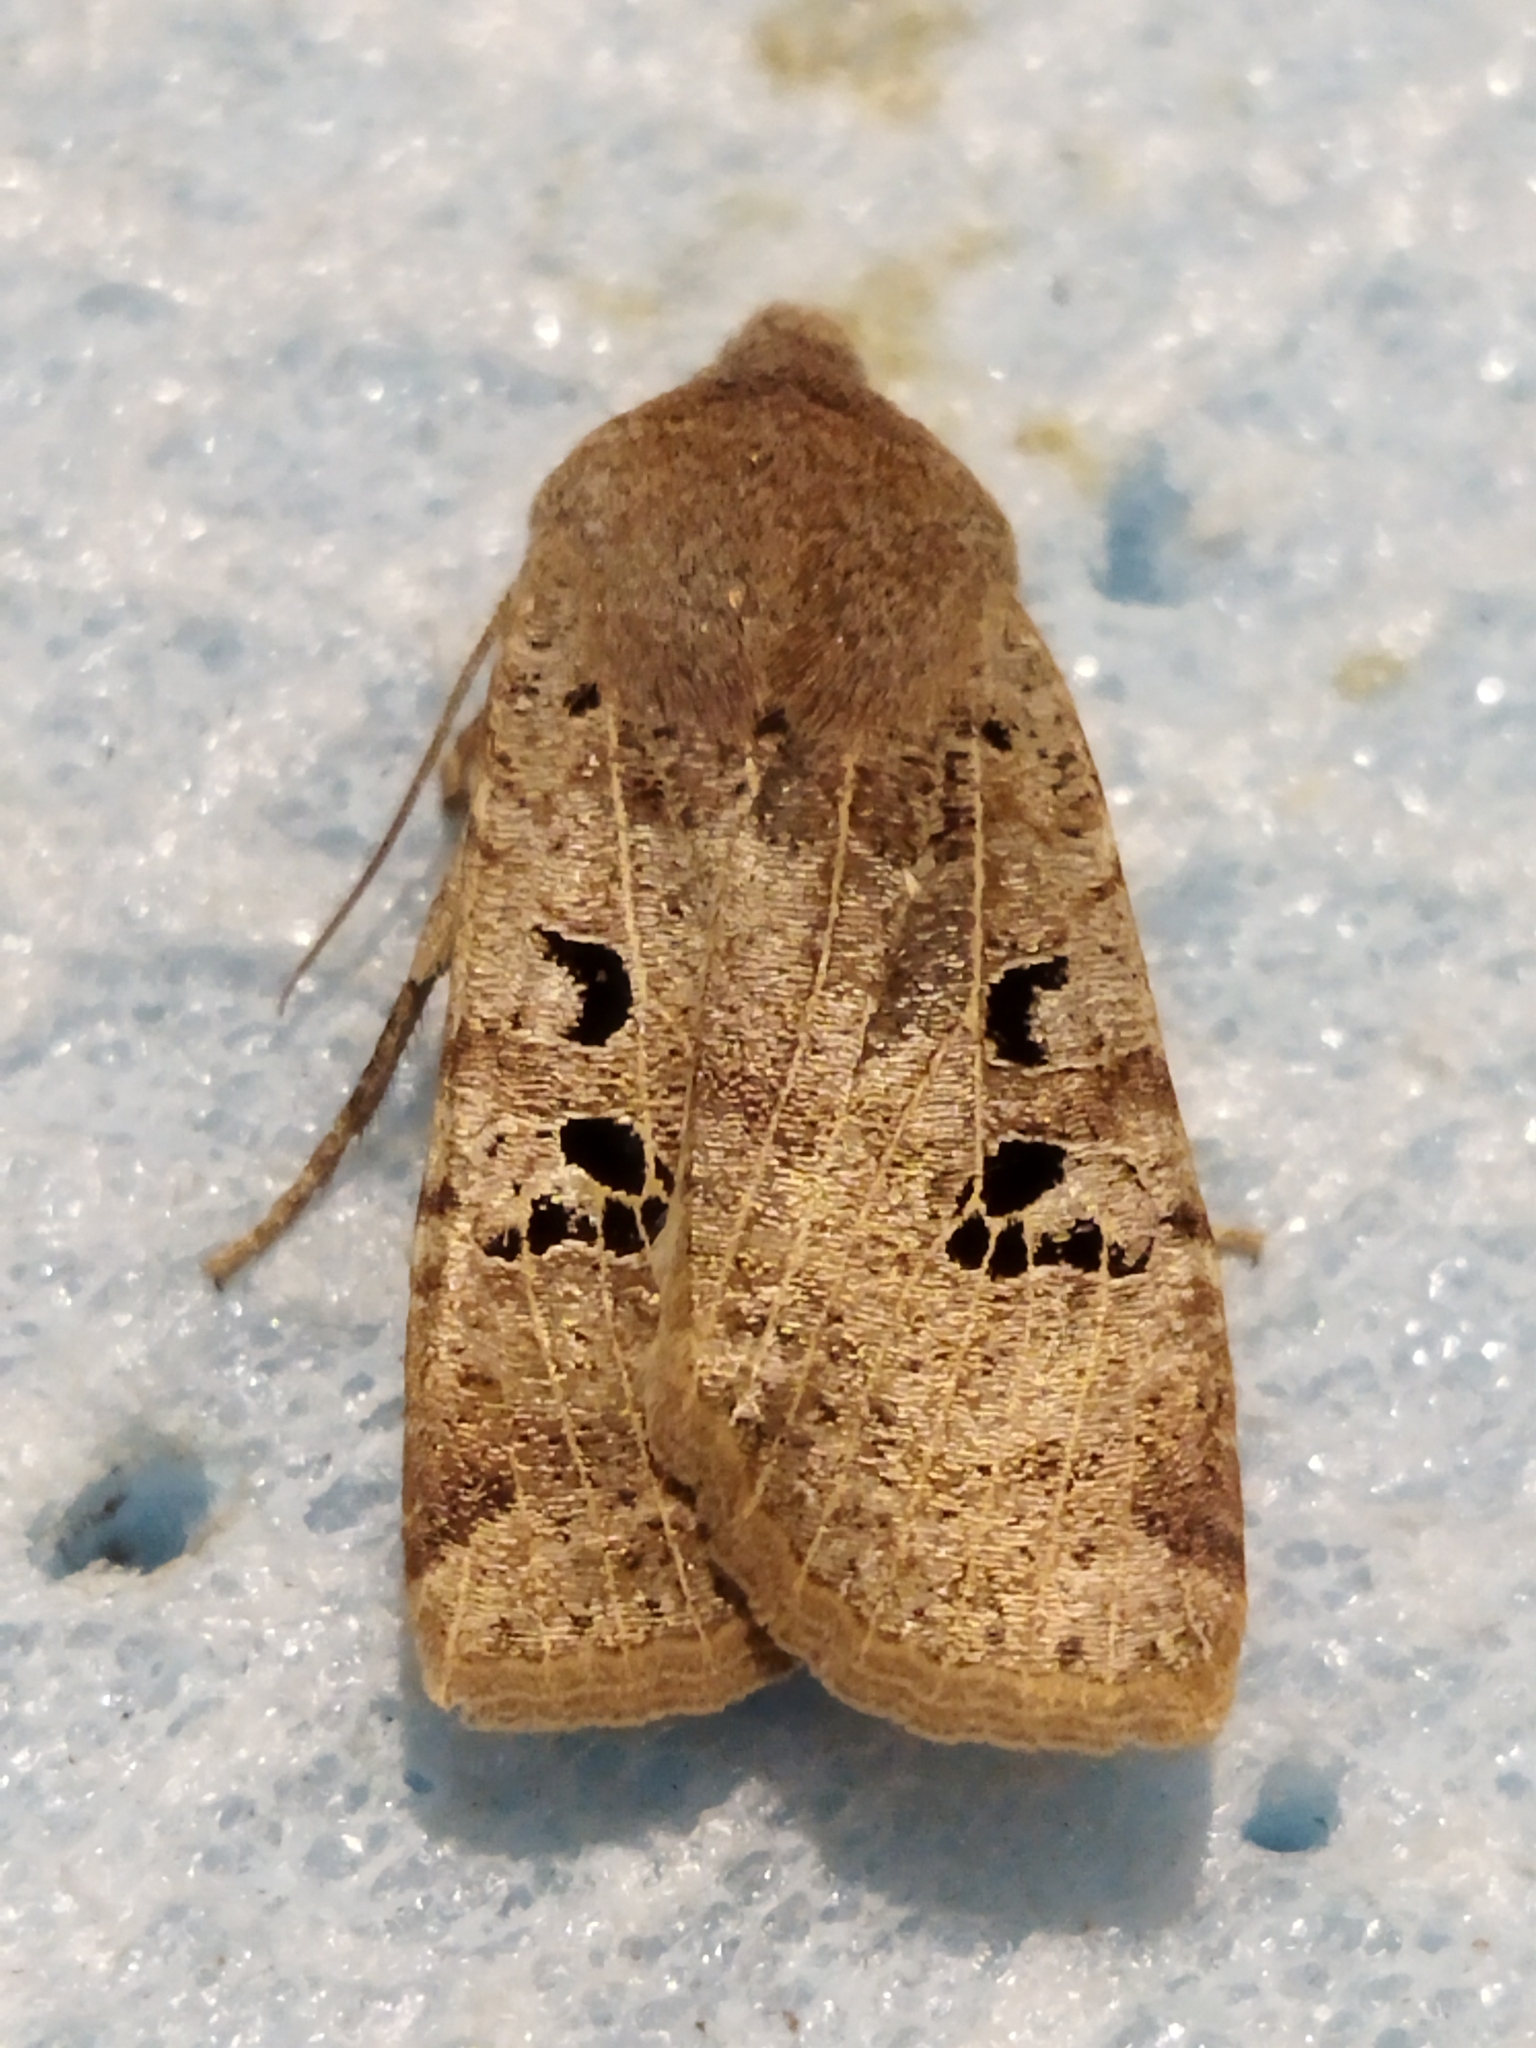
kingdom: Animalia
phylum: Arthropoda
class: Insecta
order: Lepidoptera
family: Noctuidae
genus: Conistra
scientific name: Conistra rubiginosa
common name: Black-spotted chestnut
